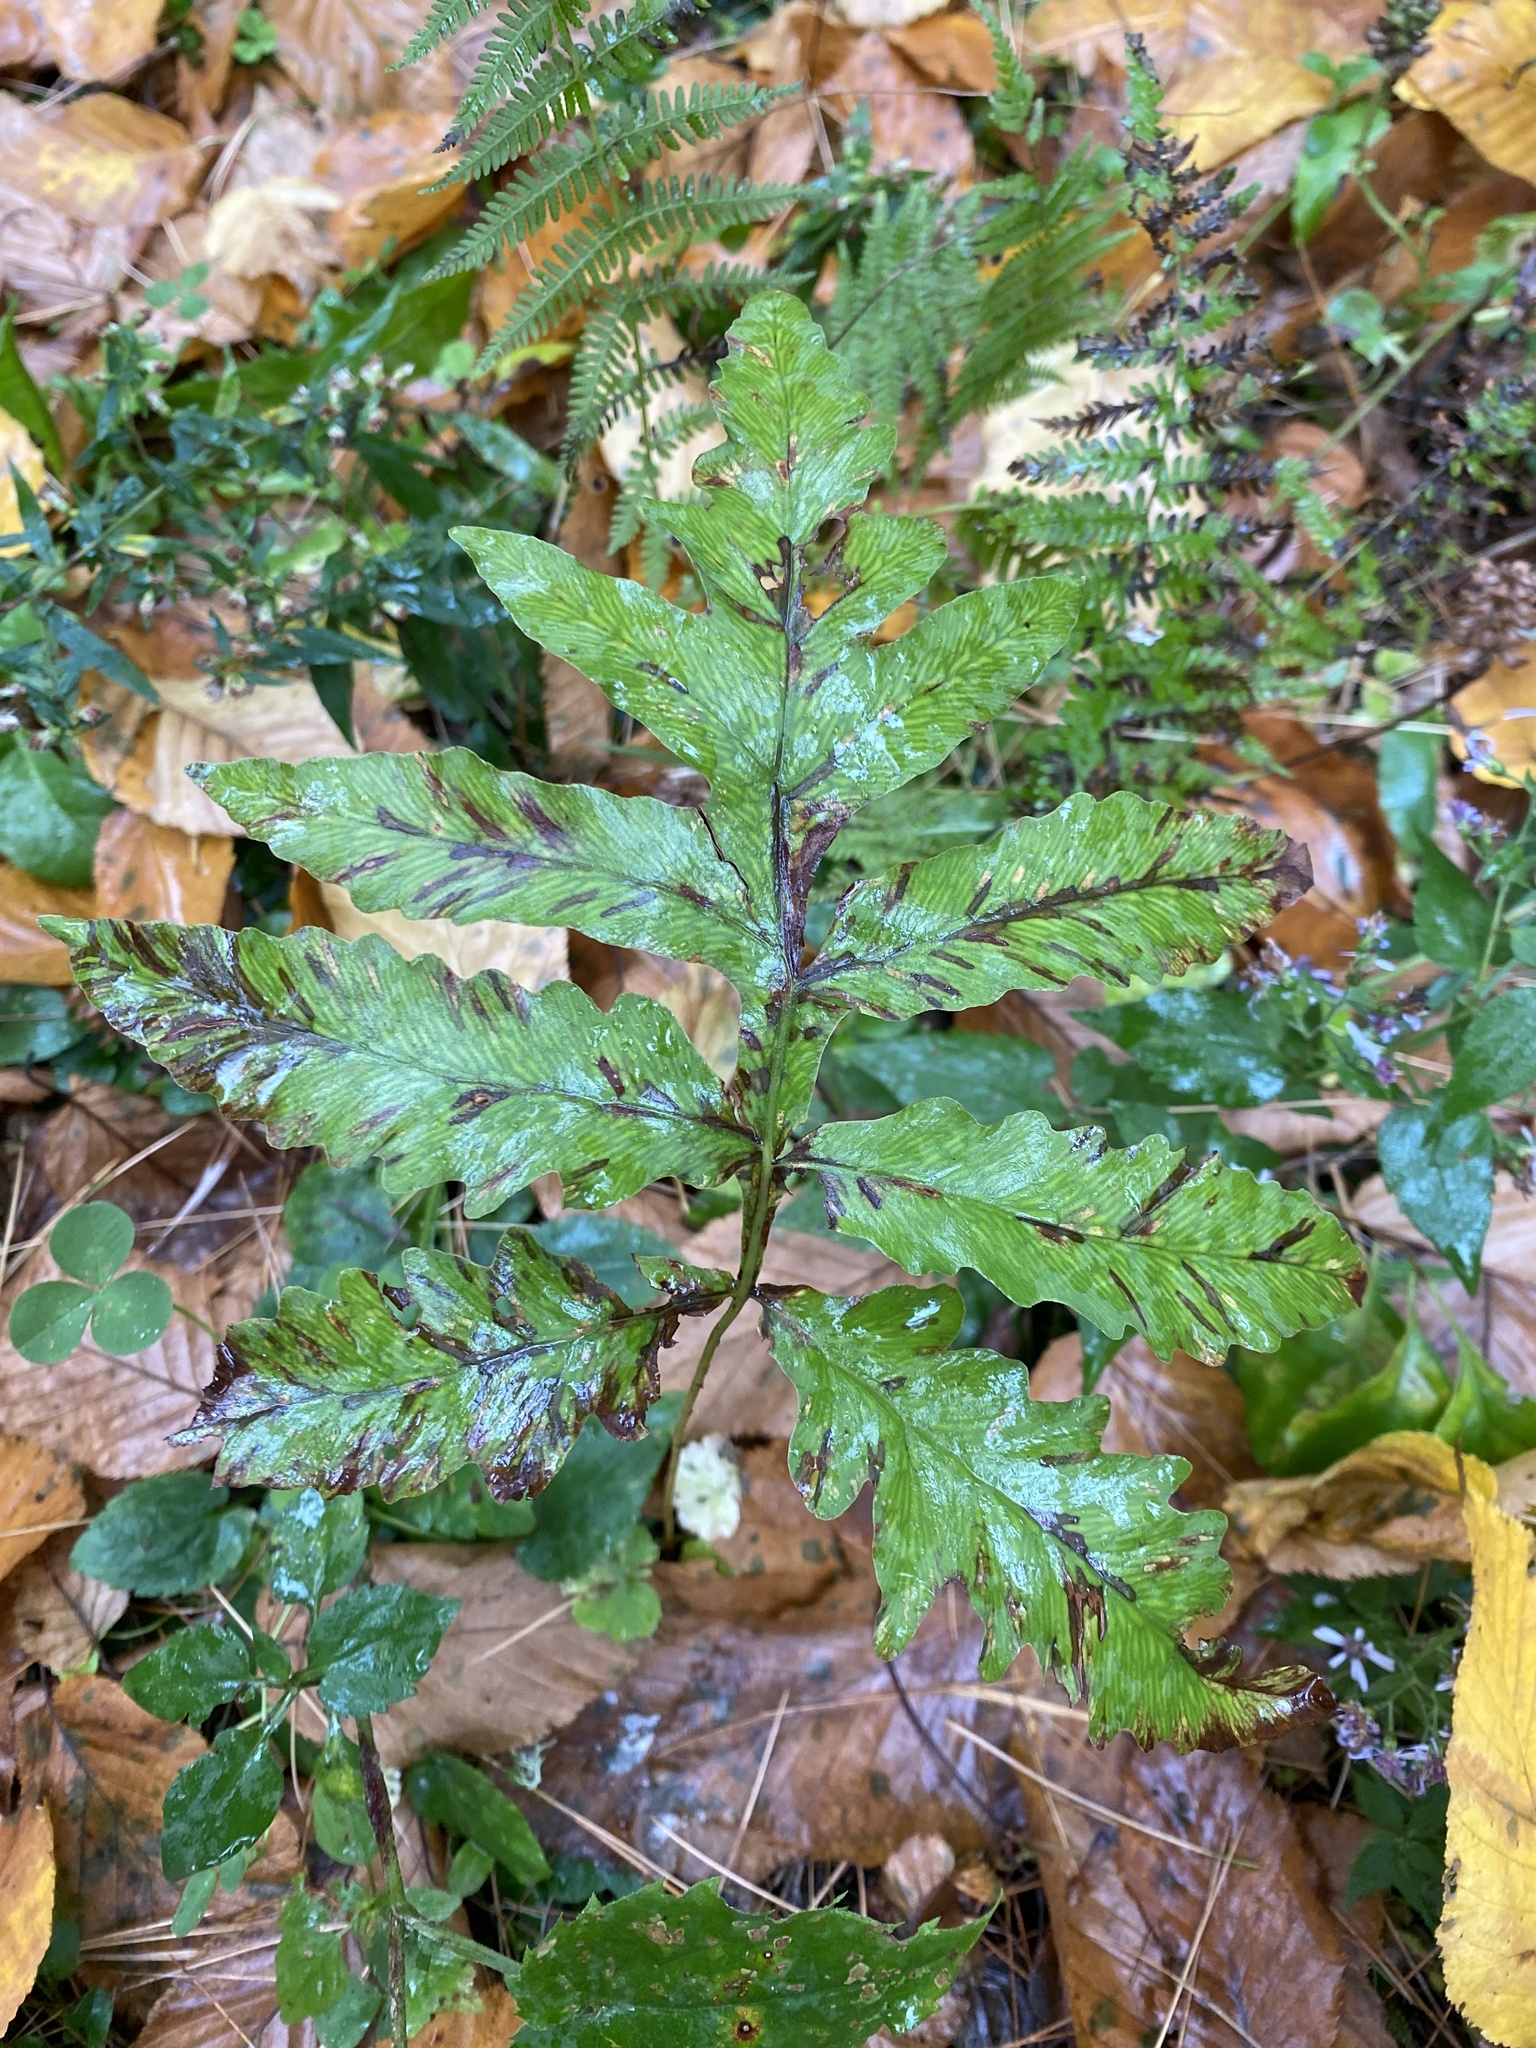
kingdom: Plantae
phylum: Tracheophyta
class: Polypodiopsida
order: Polypodiales
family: Onocleaceae
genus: Onoclea
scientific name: Onoclea sensibilis
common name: Sensitive fern
